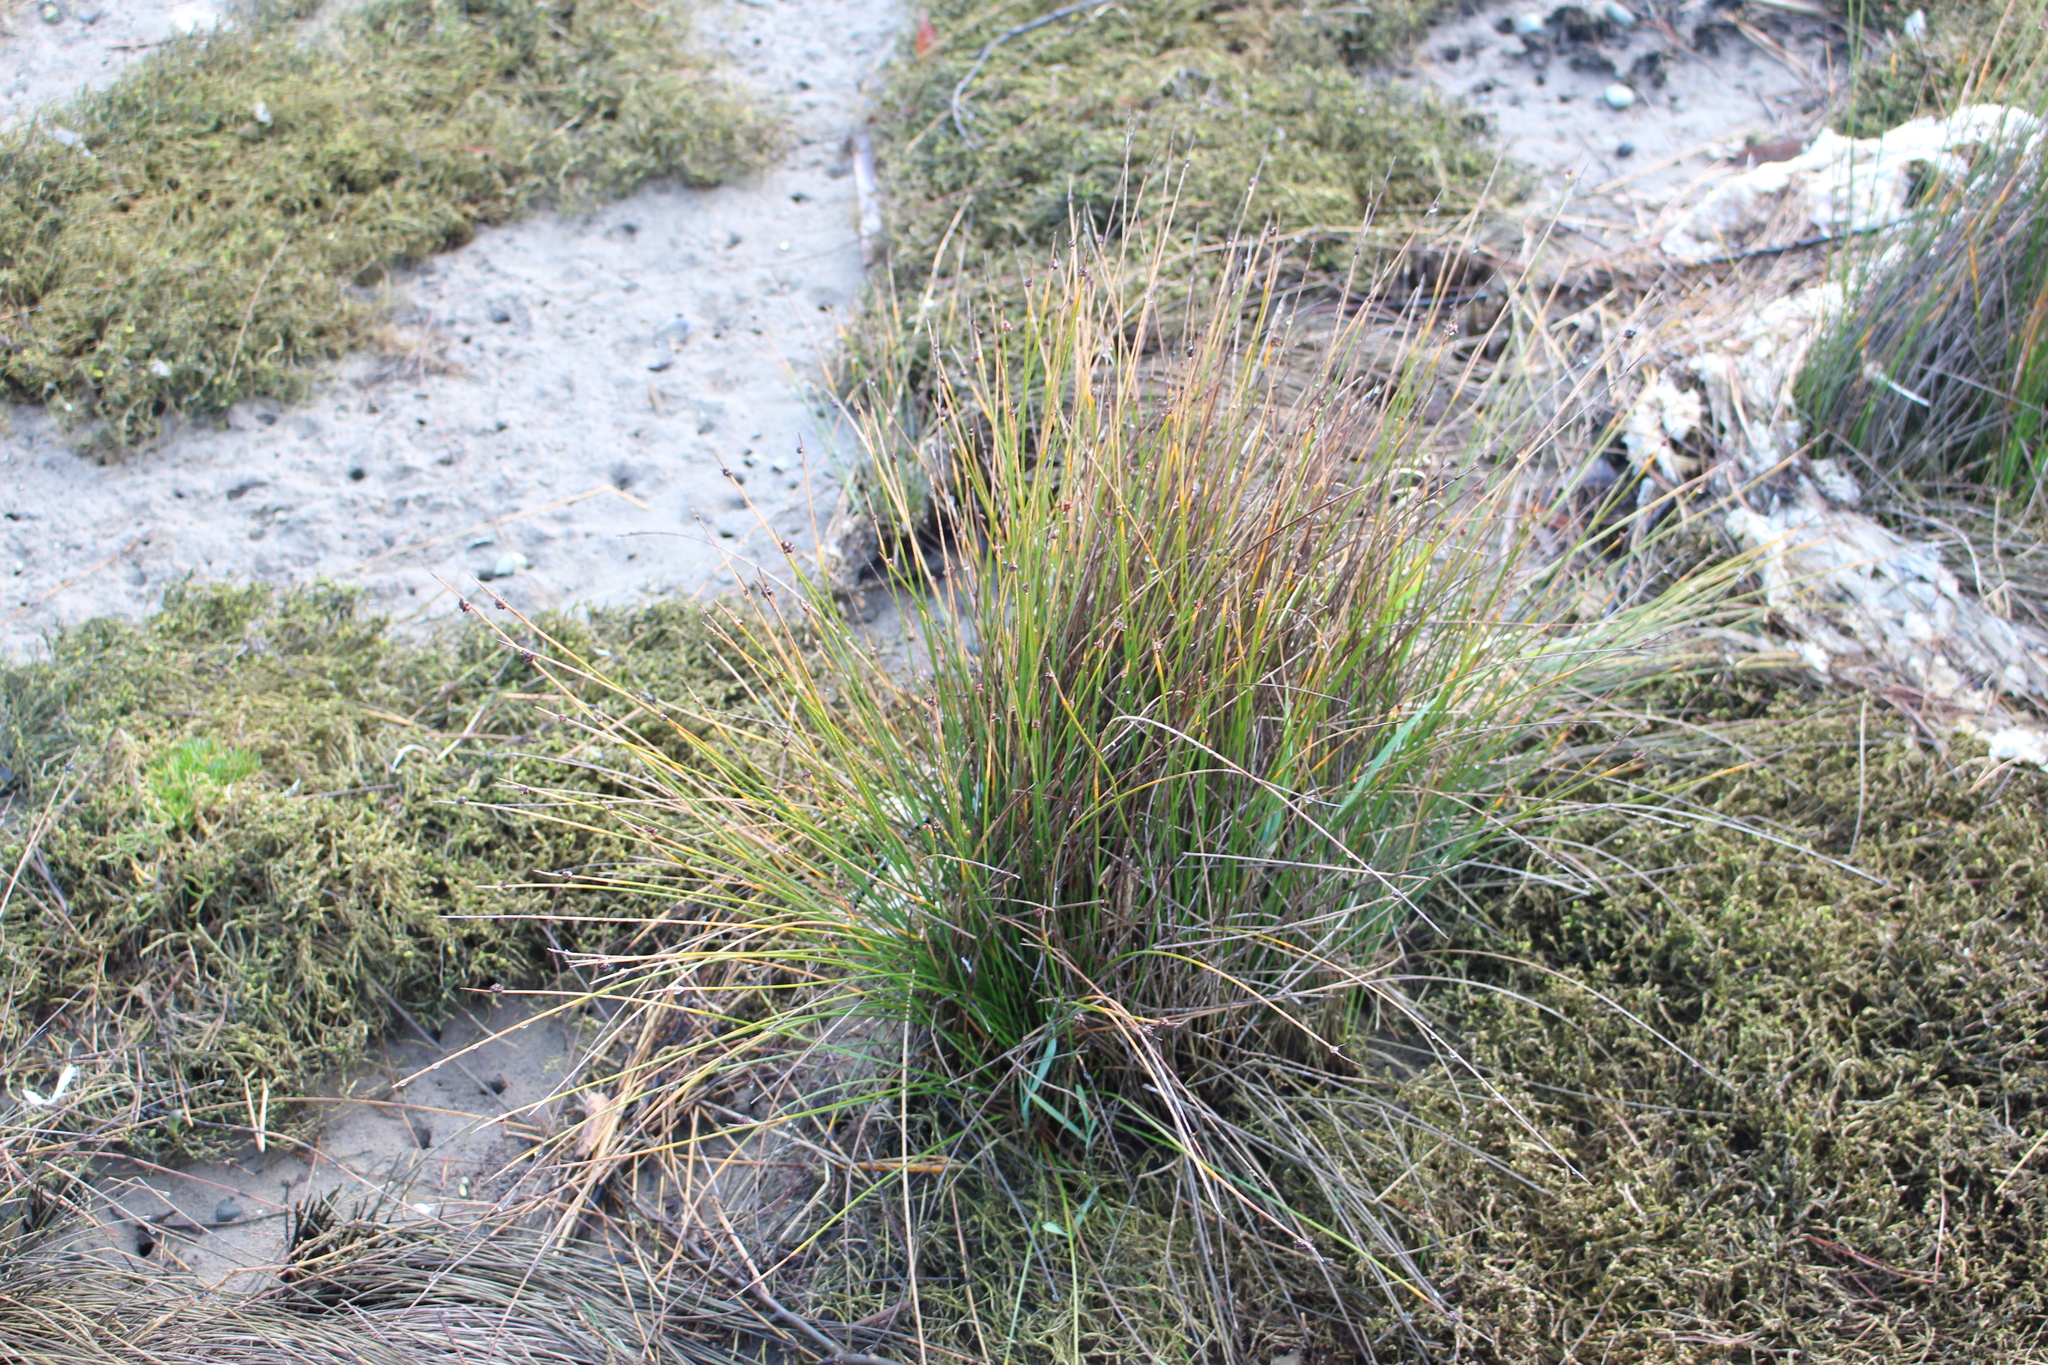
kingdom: Plantae
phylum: Tracheophyta
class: Liliopsida
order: Poales
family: Cyperaceae
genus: Ficinia
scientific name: Ficinia nodosa
